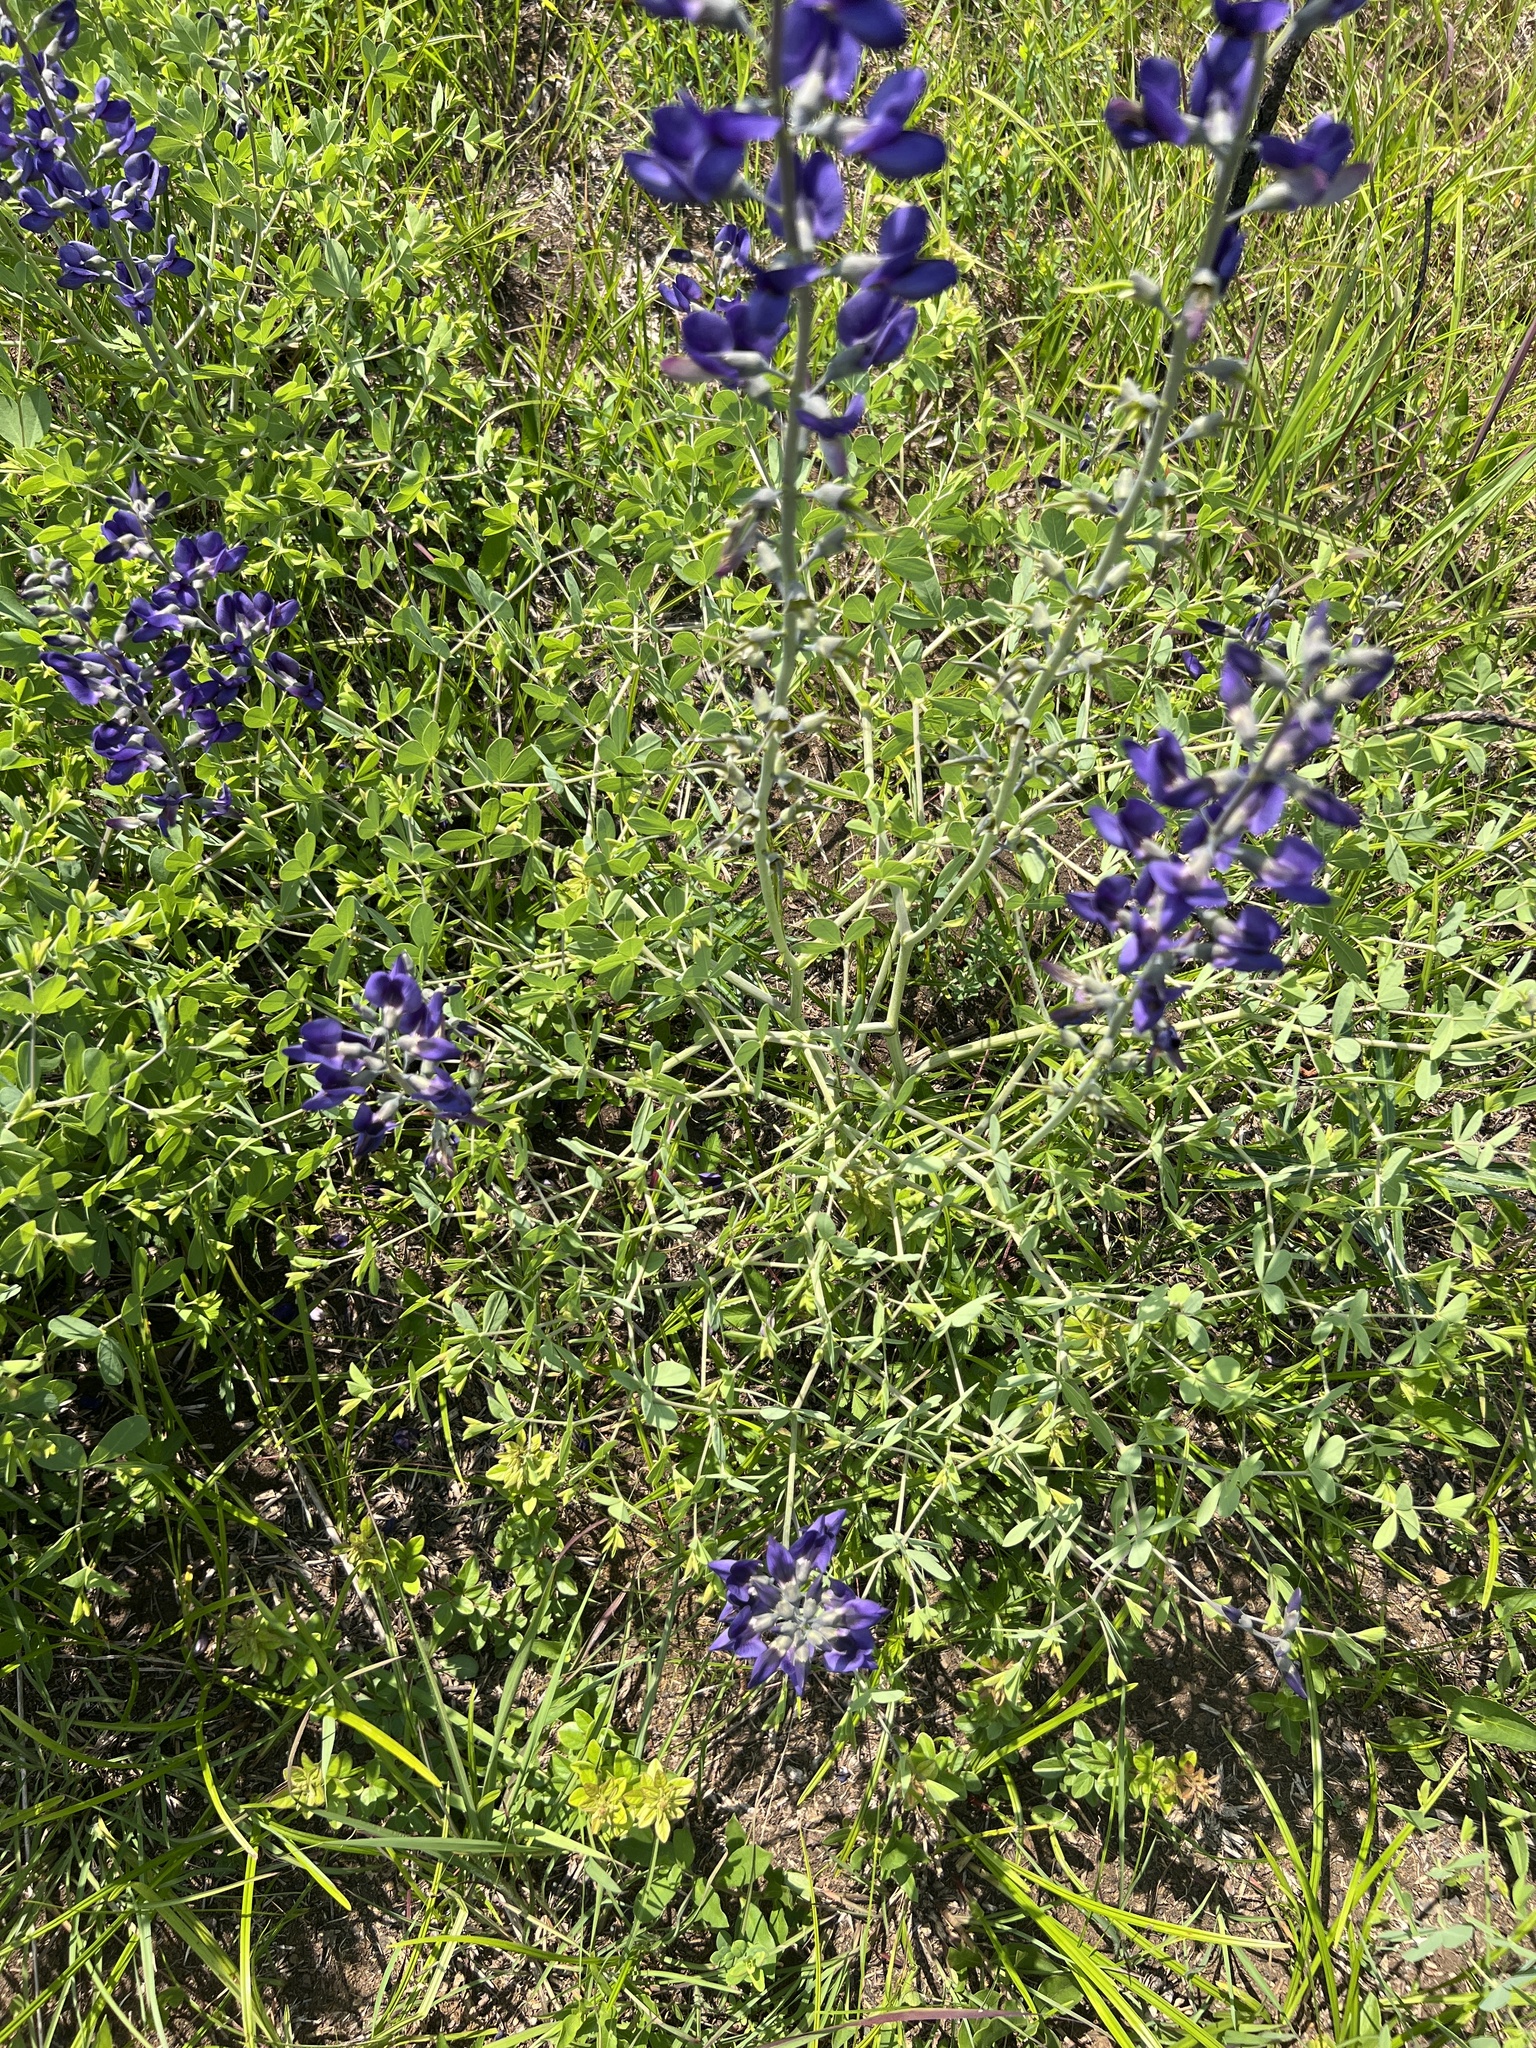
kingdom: Plantae
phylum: Tracheophyta
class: Magnoliopsida
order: Fabales
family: Fabaceae
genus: Baptisia
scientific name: Baptisia aberrans
